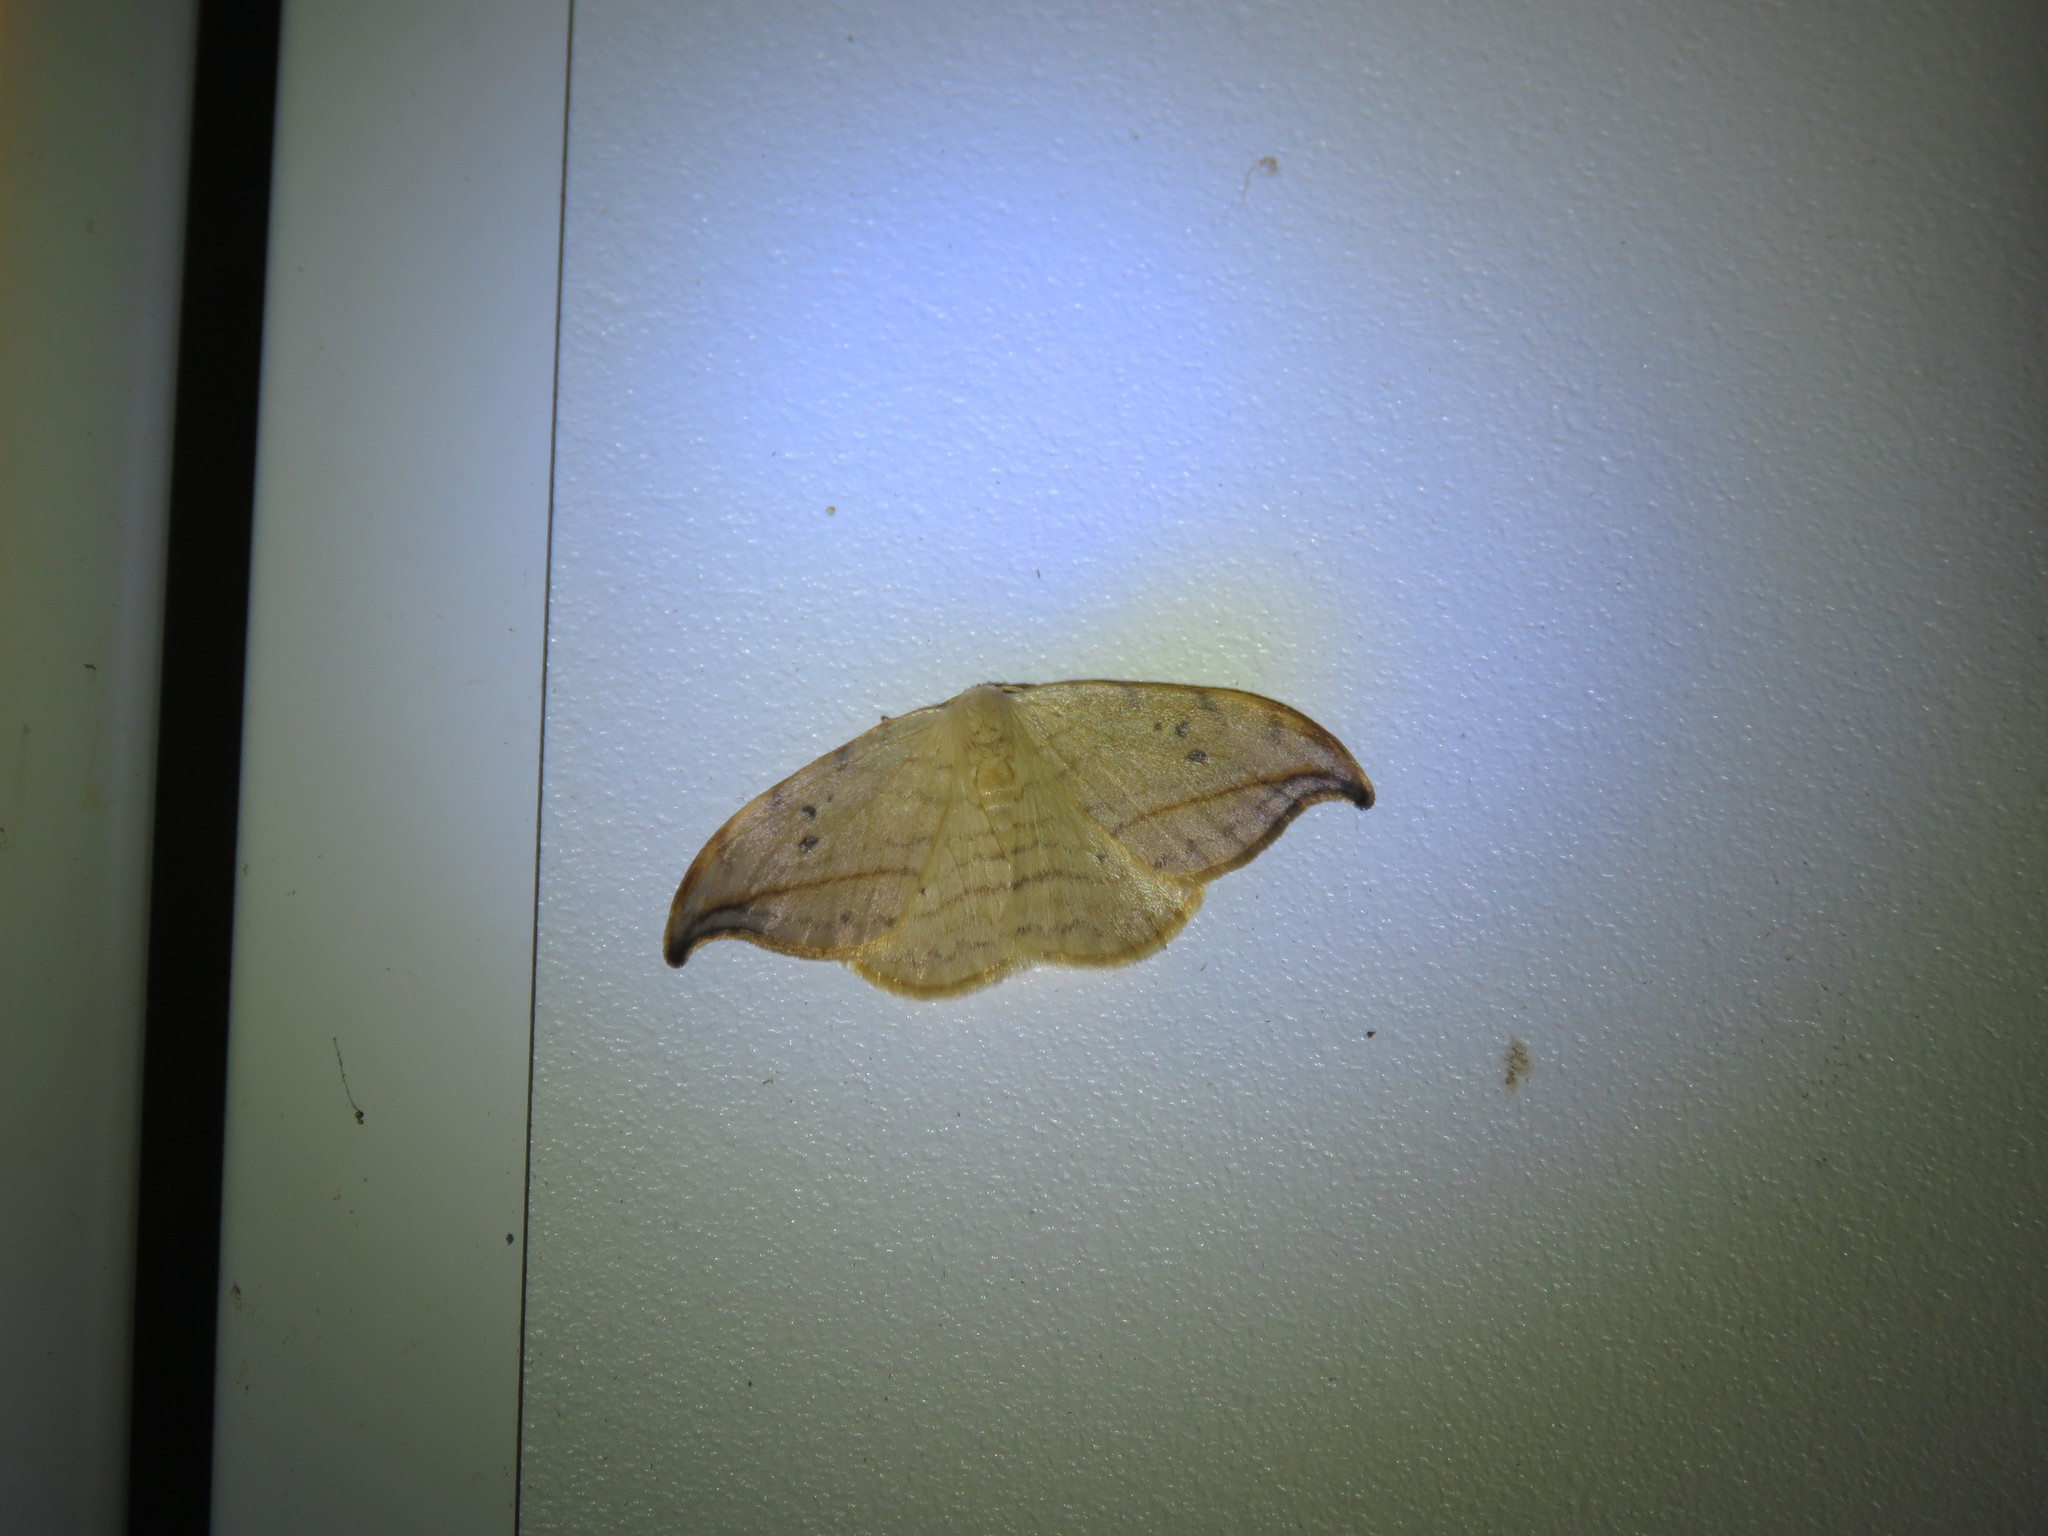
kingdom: Animalia
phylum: Arthropoda
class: Insecta
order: Lepidoptera
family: Drepanidae
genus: Drepana
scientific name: Drepana arcuata
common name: Arched hooktip moth
